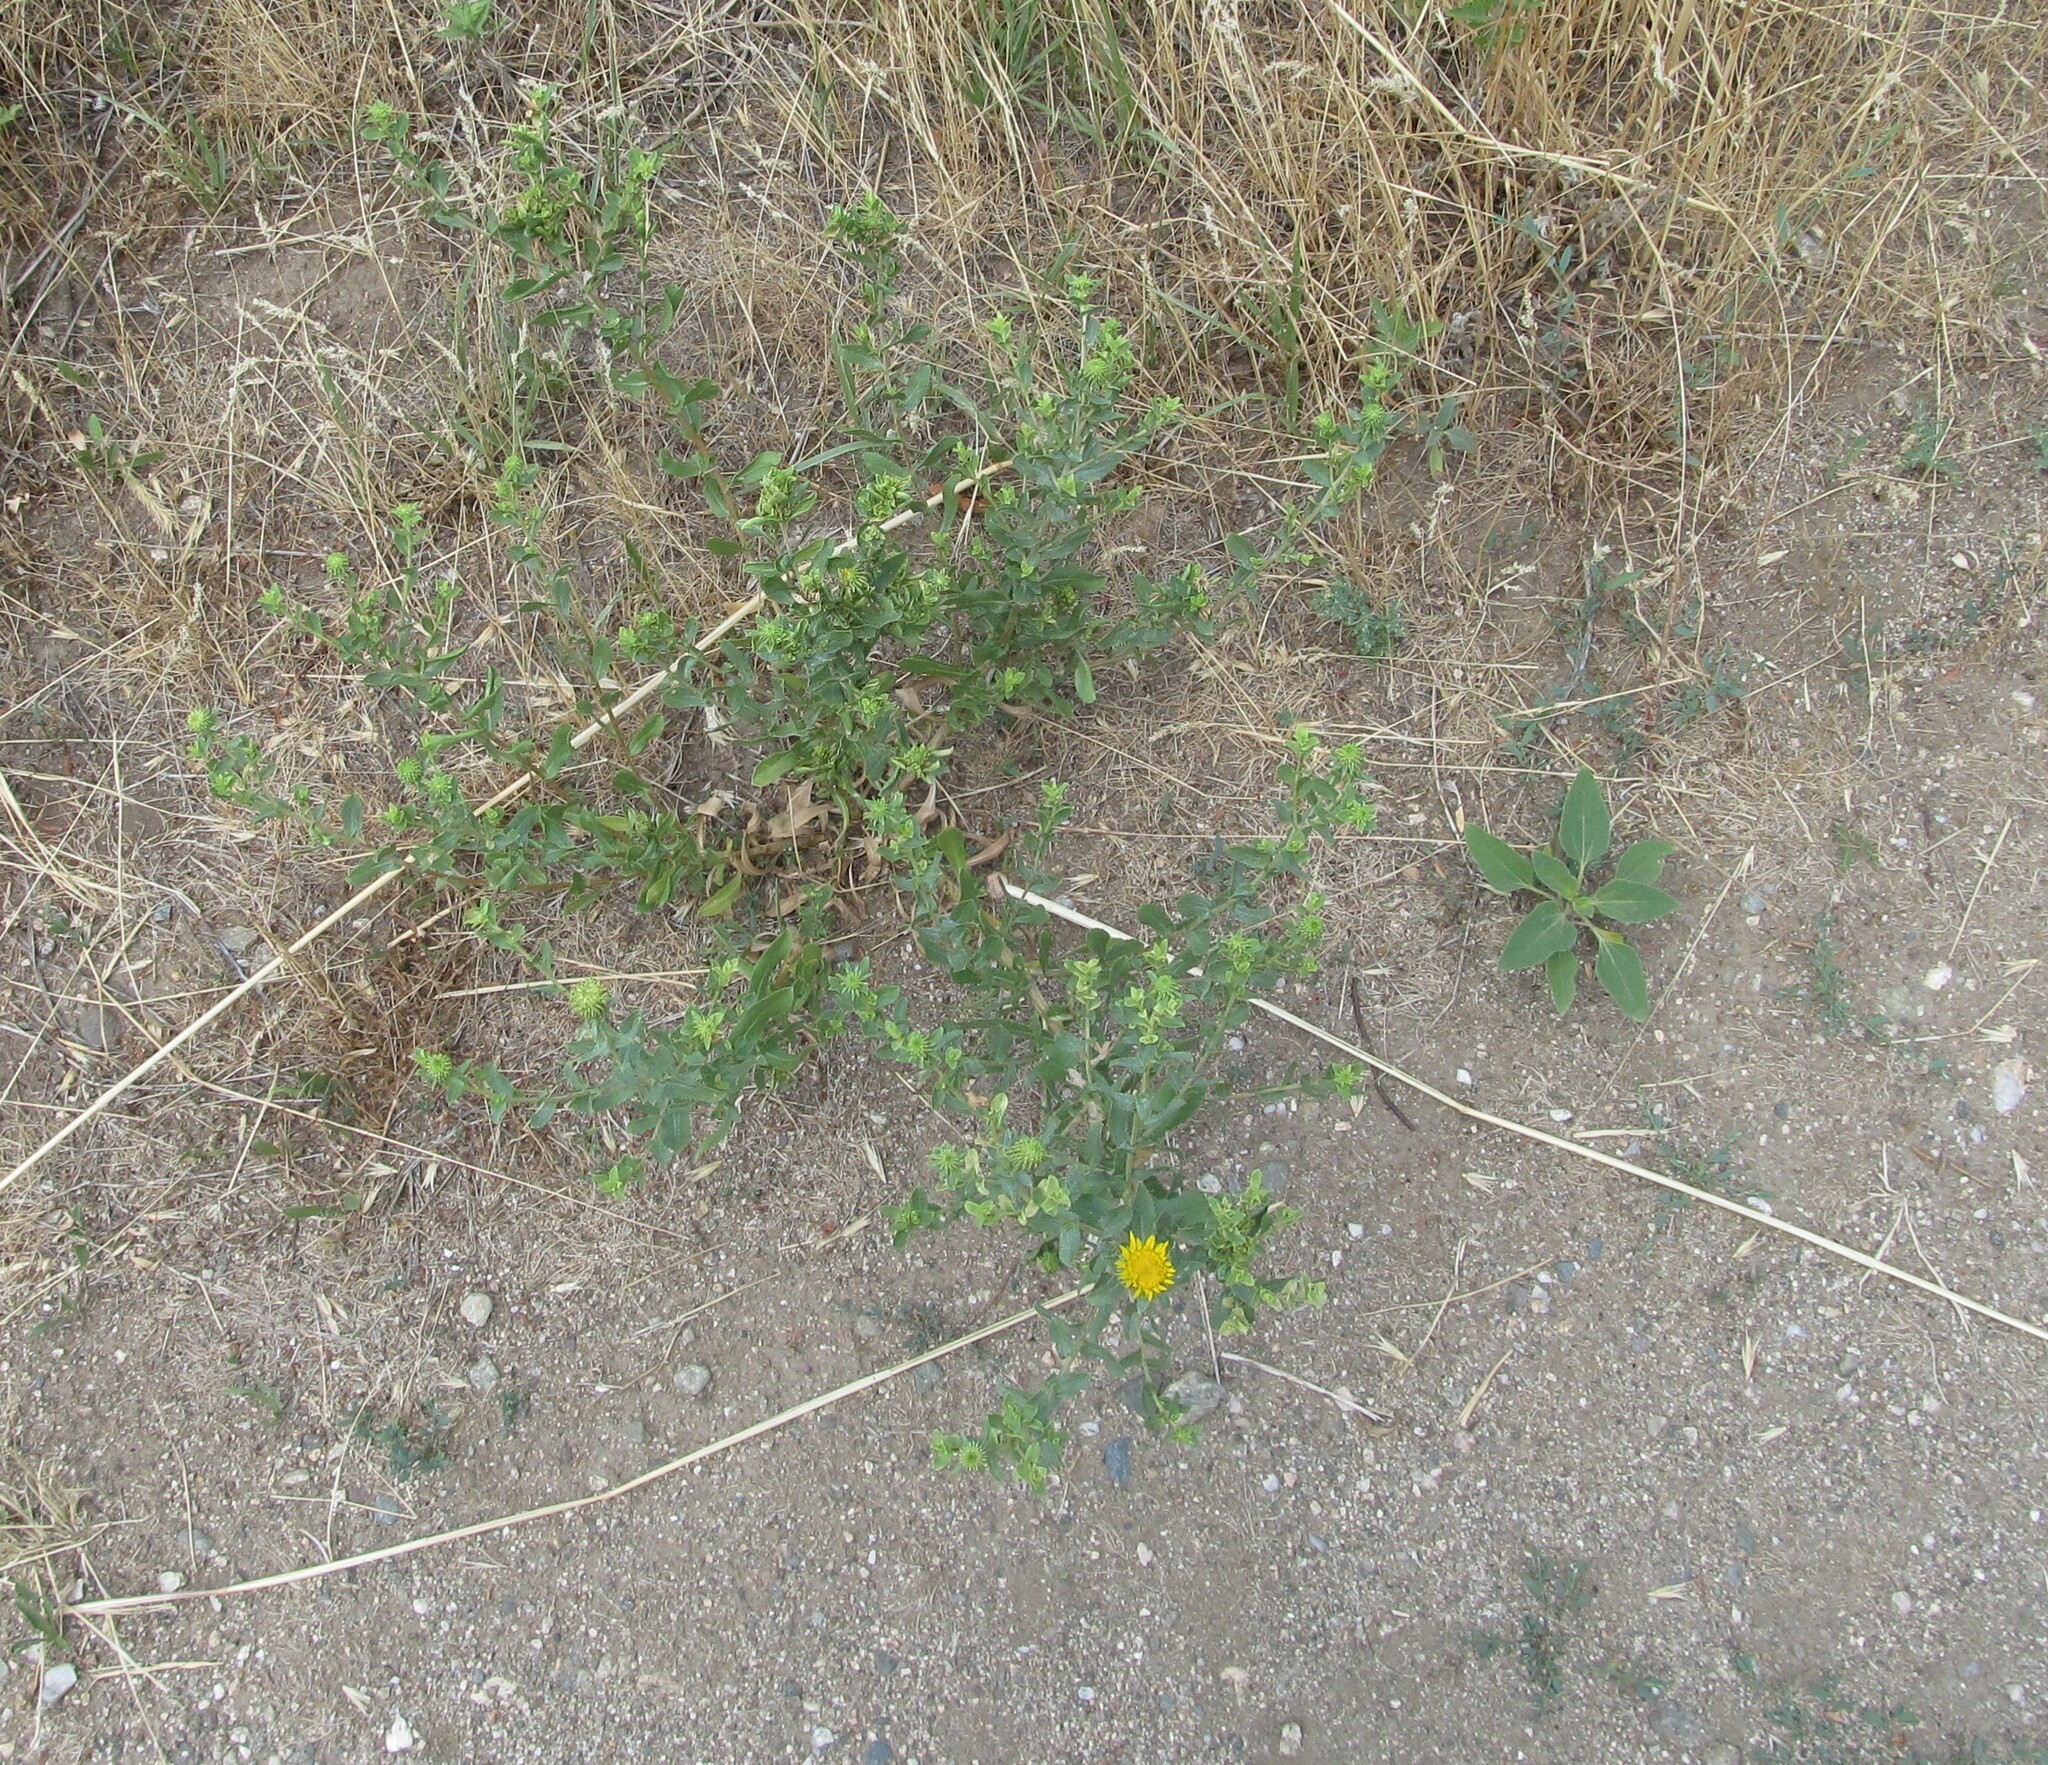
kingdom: Plantae
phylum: Tracheophyta
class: Magnoliopsida
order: Asterales
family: Asteraceae
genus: Grindelia
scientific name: Grindelia squarrosa
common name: Curly-cup gumweed
